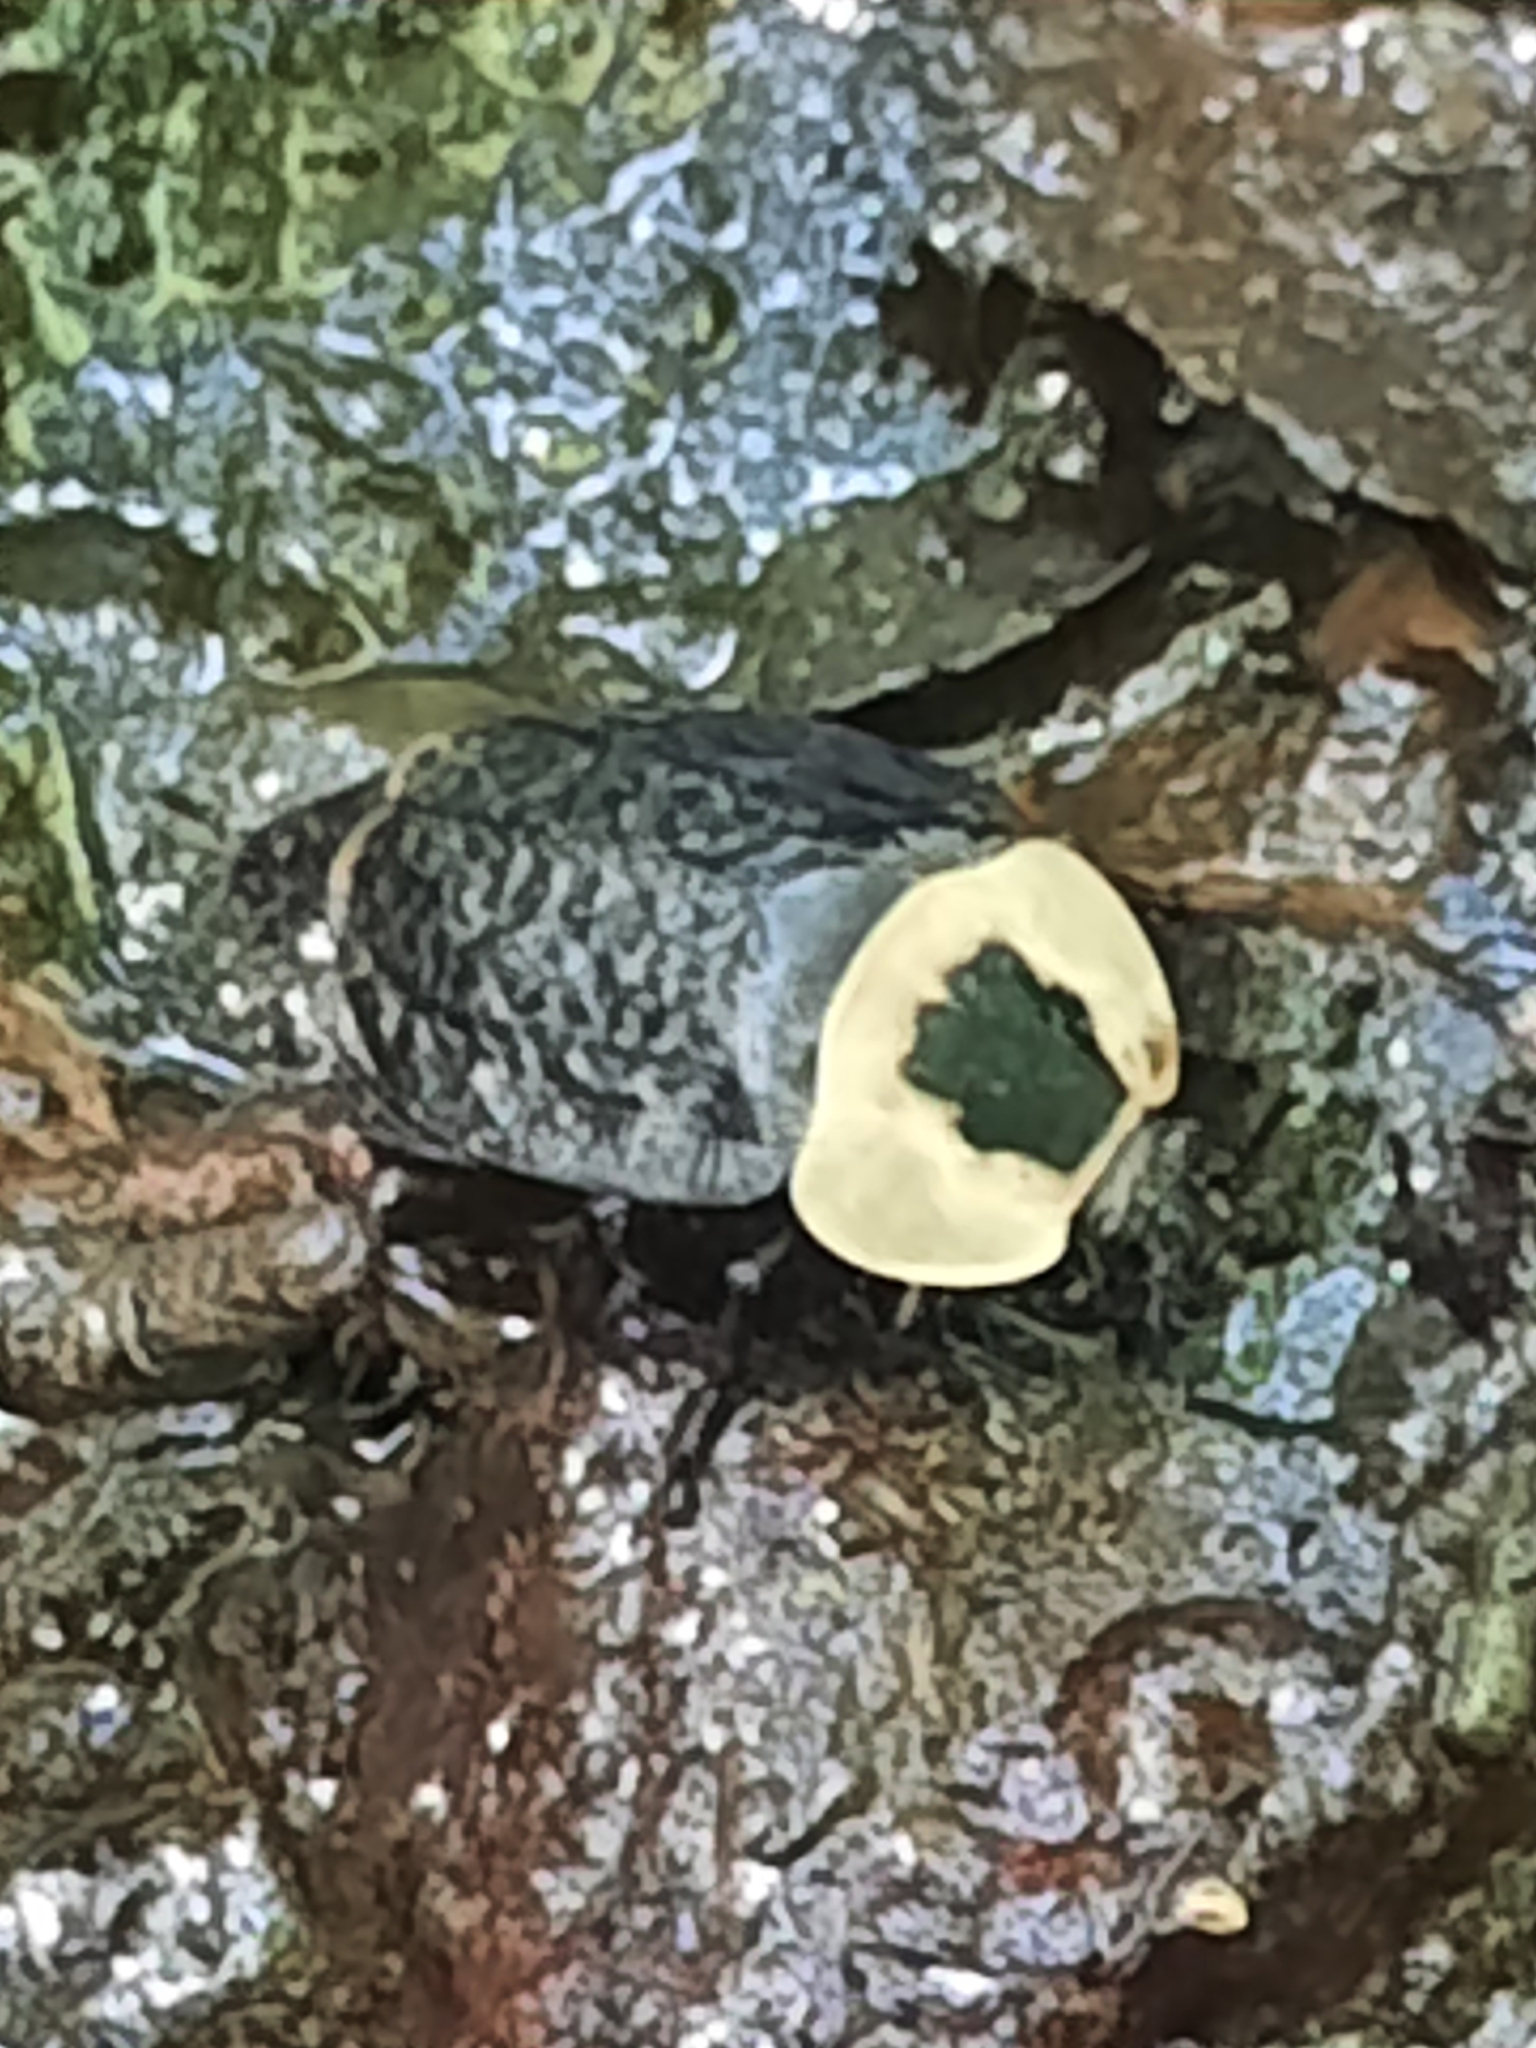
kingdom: Animalia
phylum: Arthropoda
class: Insecta
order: Coleoptera
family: Staphylinidae
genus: Necrophila
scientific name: Necrophila americana
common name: American carrion beetle
